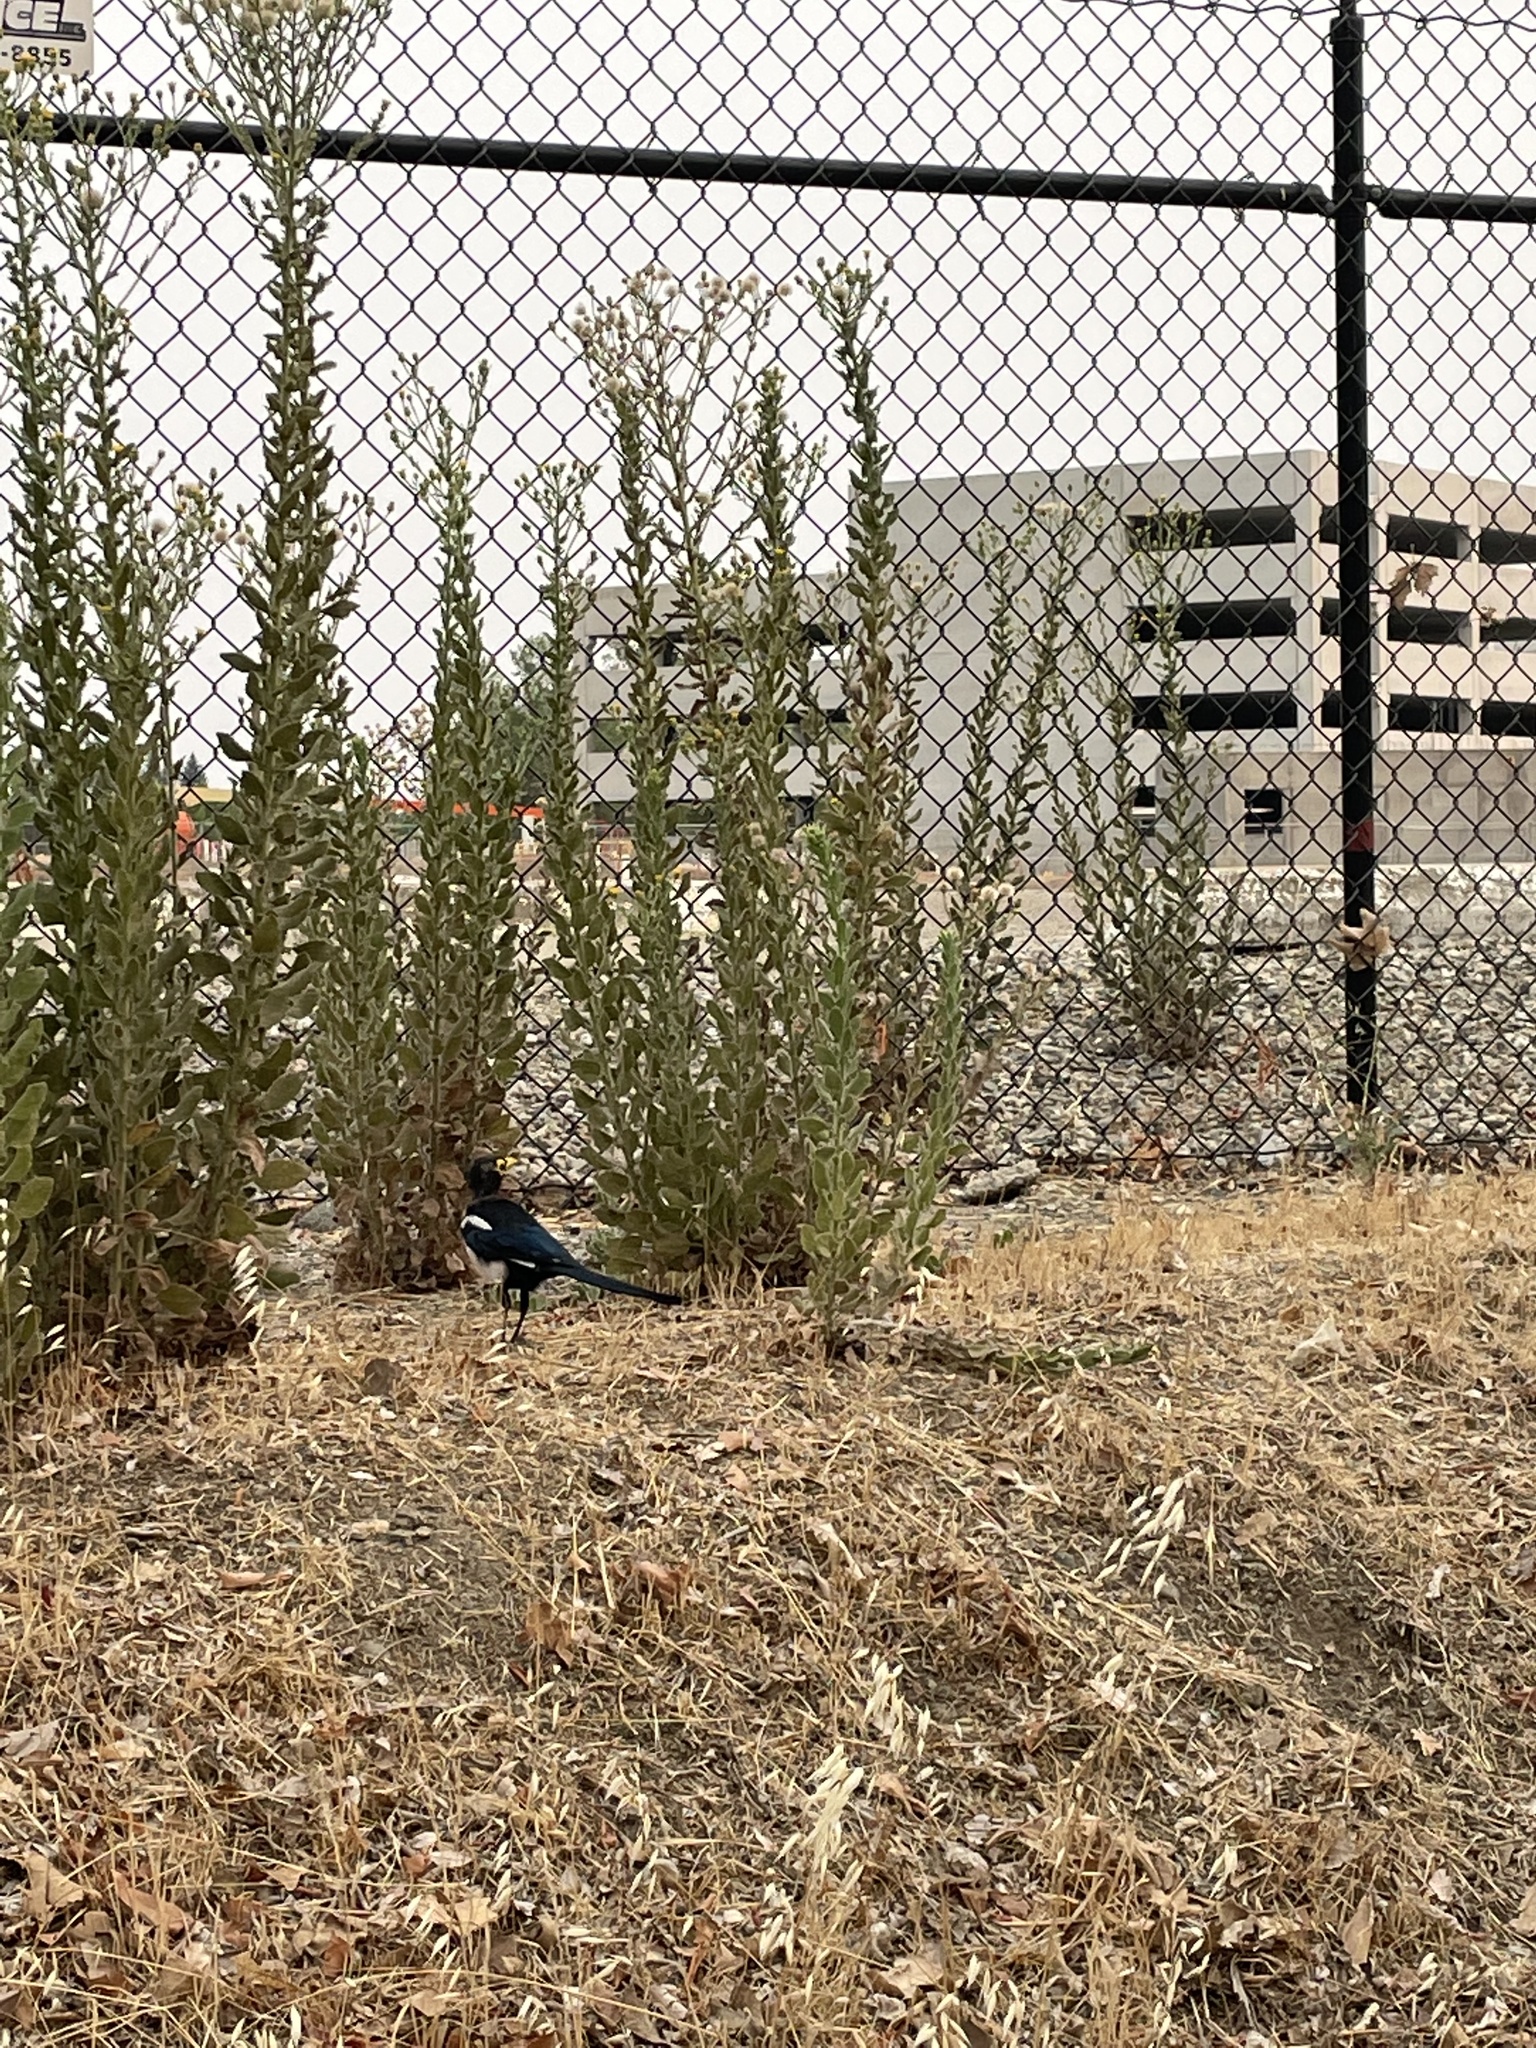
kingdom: Animalia
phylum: Chordata
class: Aves
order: Passeriformes
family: Corvidae
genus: Pica
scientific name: Pica nuttalli
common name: Yellow-billed magpie
